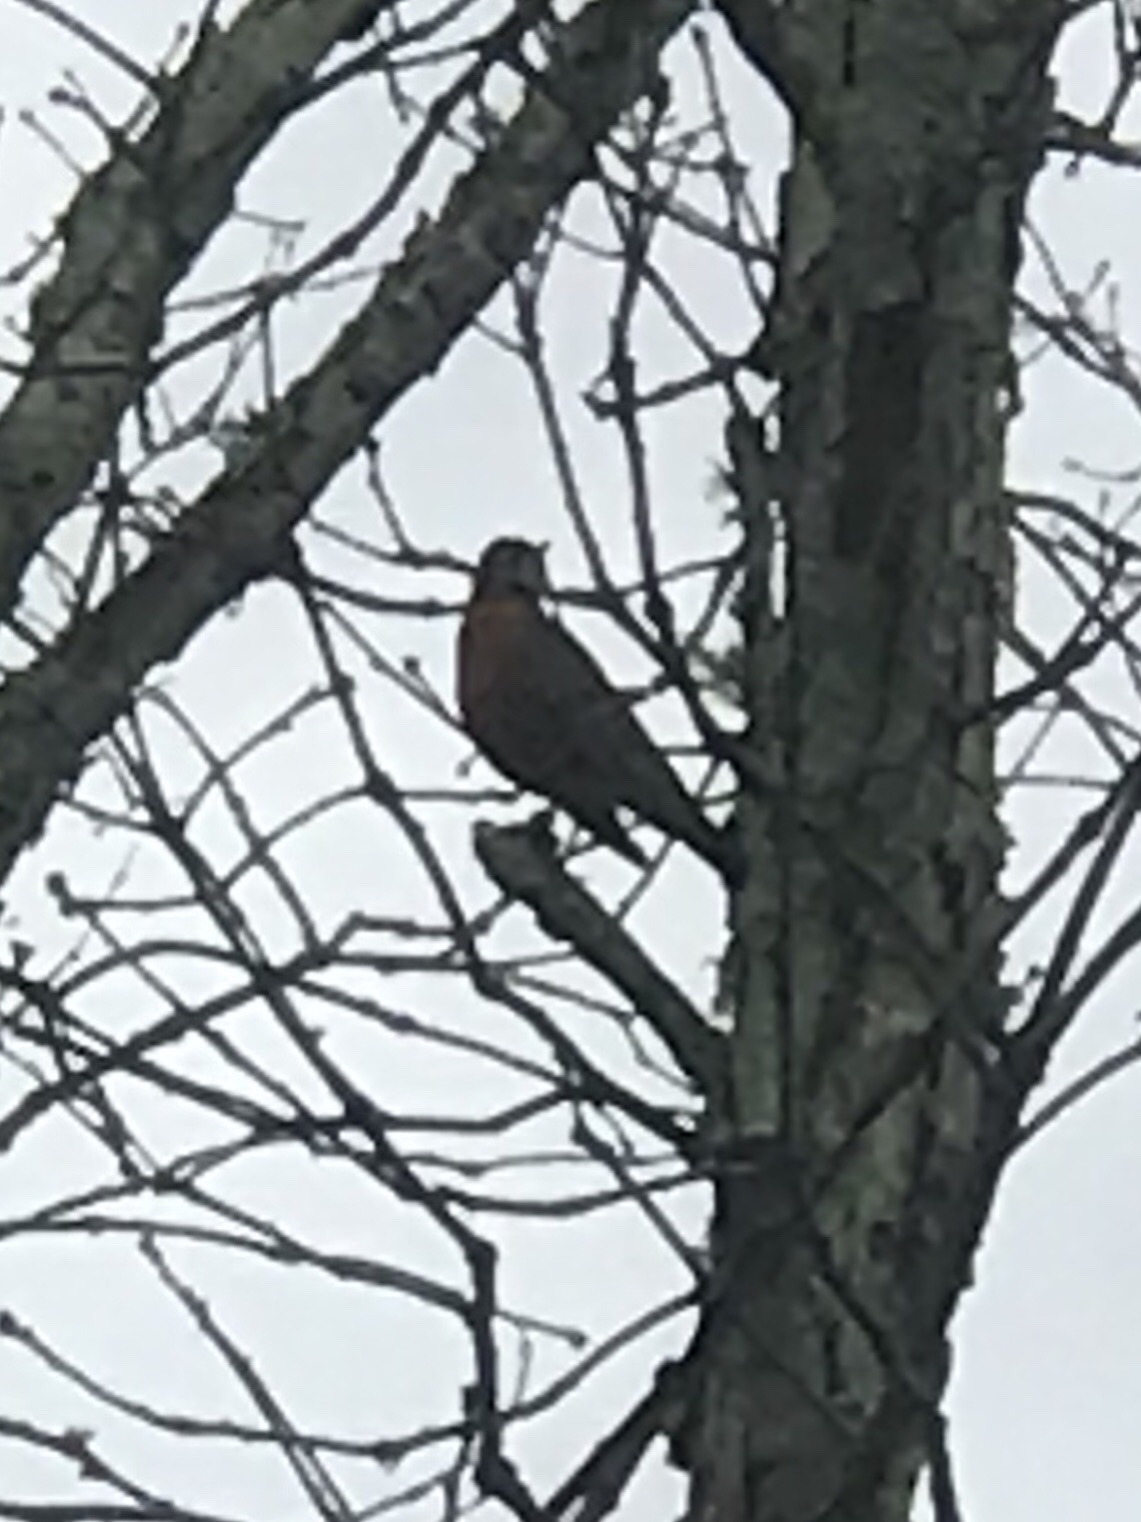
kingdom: Animalia
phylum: Chordata
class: Aves
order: Passeriformes
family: Turdidae
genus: Turdus
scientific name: Turdus migratorius
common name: American robin
